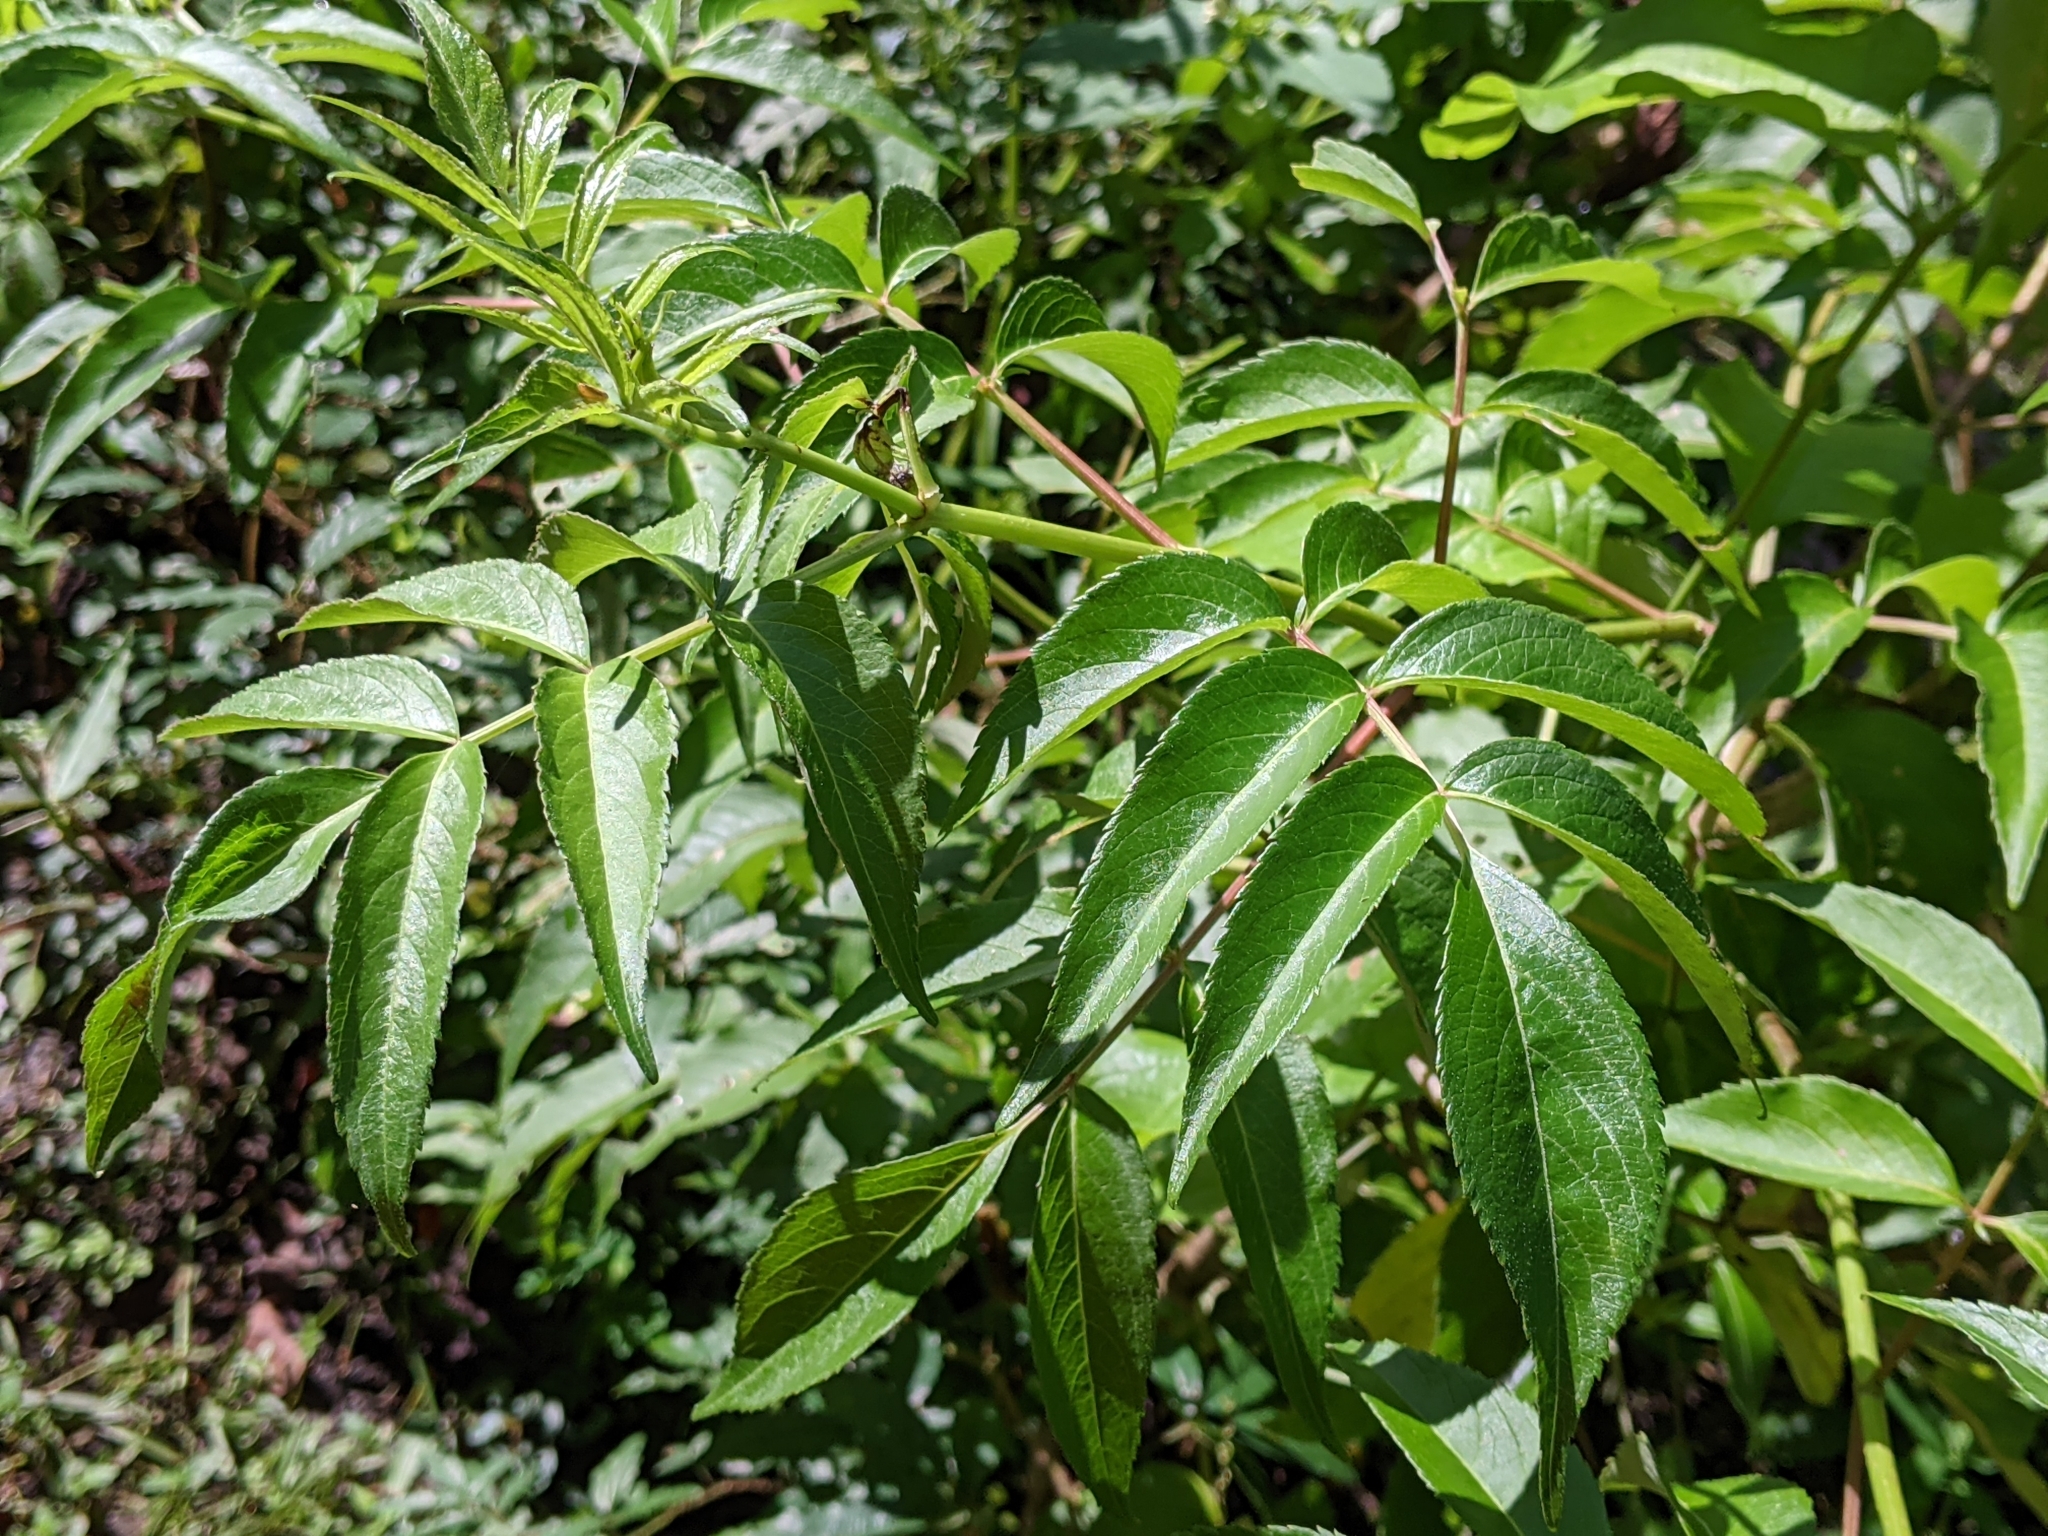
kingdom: Plantae
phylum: Tracheophyta
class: Magnoliopsida
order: Dipsacales
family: Viburnaceae
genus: Sambucus
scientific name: Sambucus canadensis
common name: American elder
